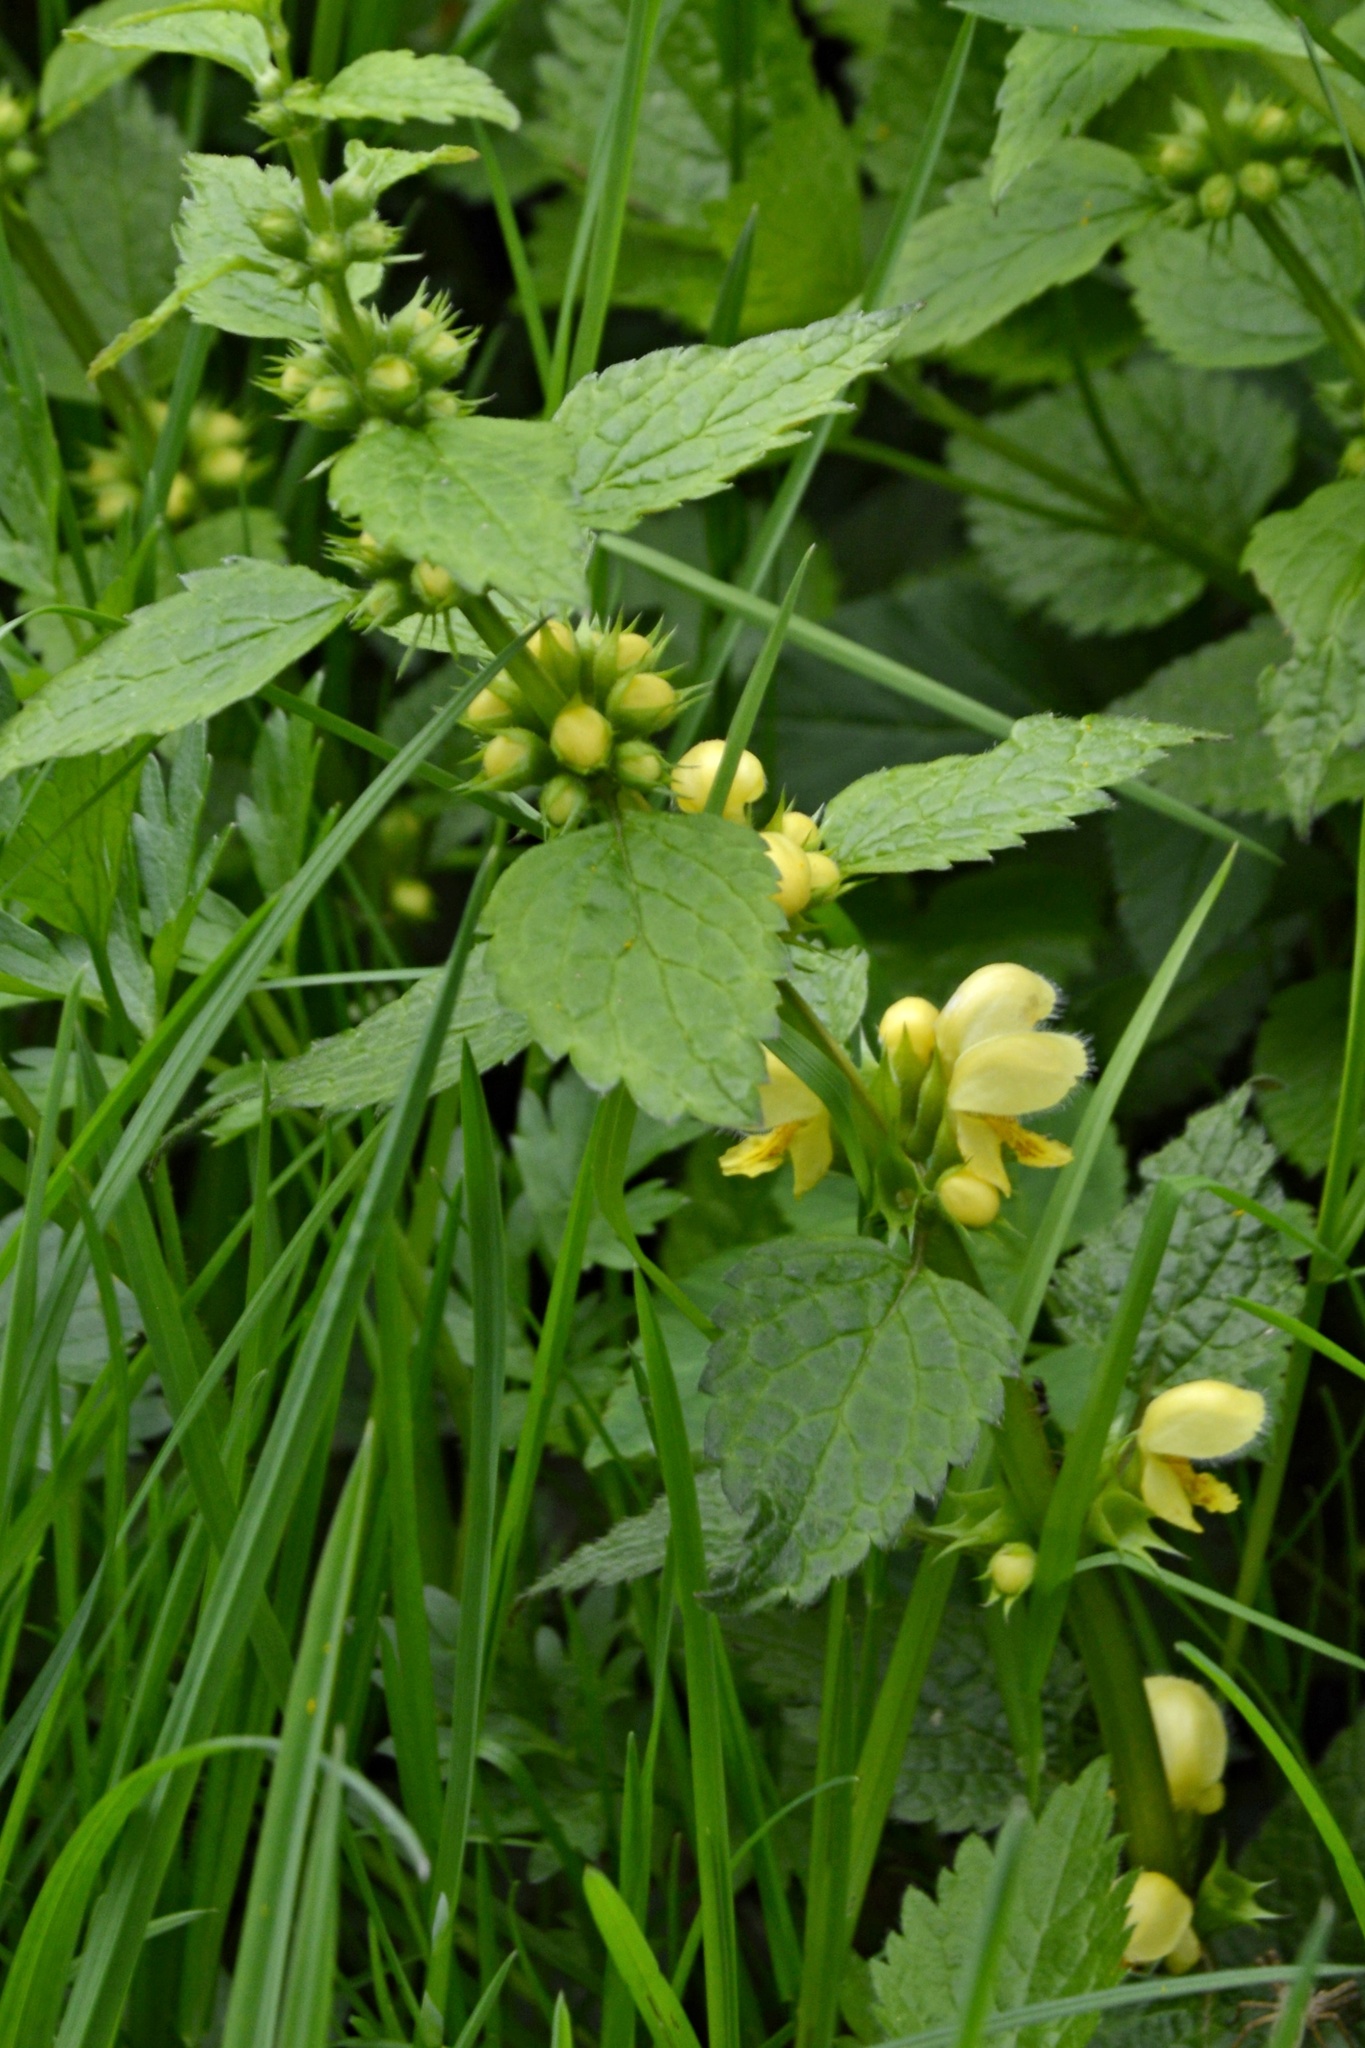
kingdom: Plantae
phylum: Tracheophyta
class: Magnoliopsida
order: Lamiales
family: Lamiaceae
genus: Lamium
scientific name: Lamium galeobdolon
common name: Yellow archangel
